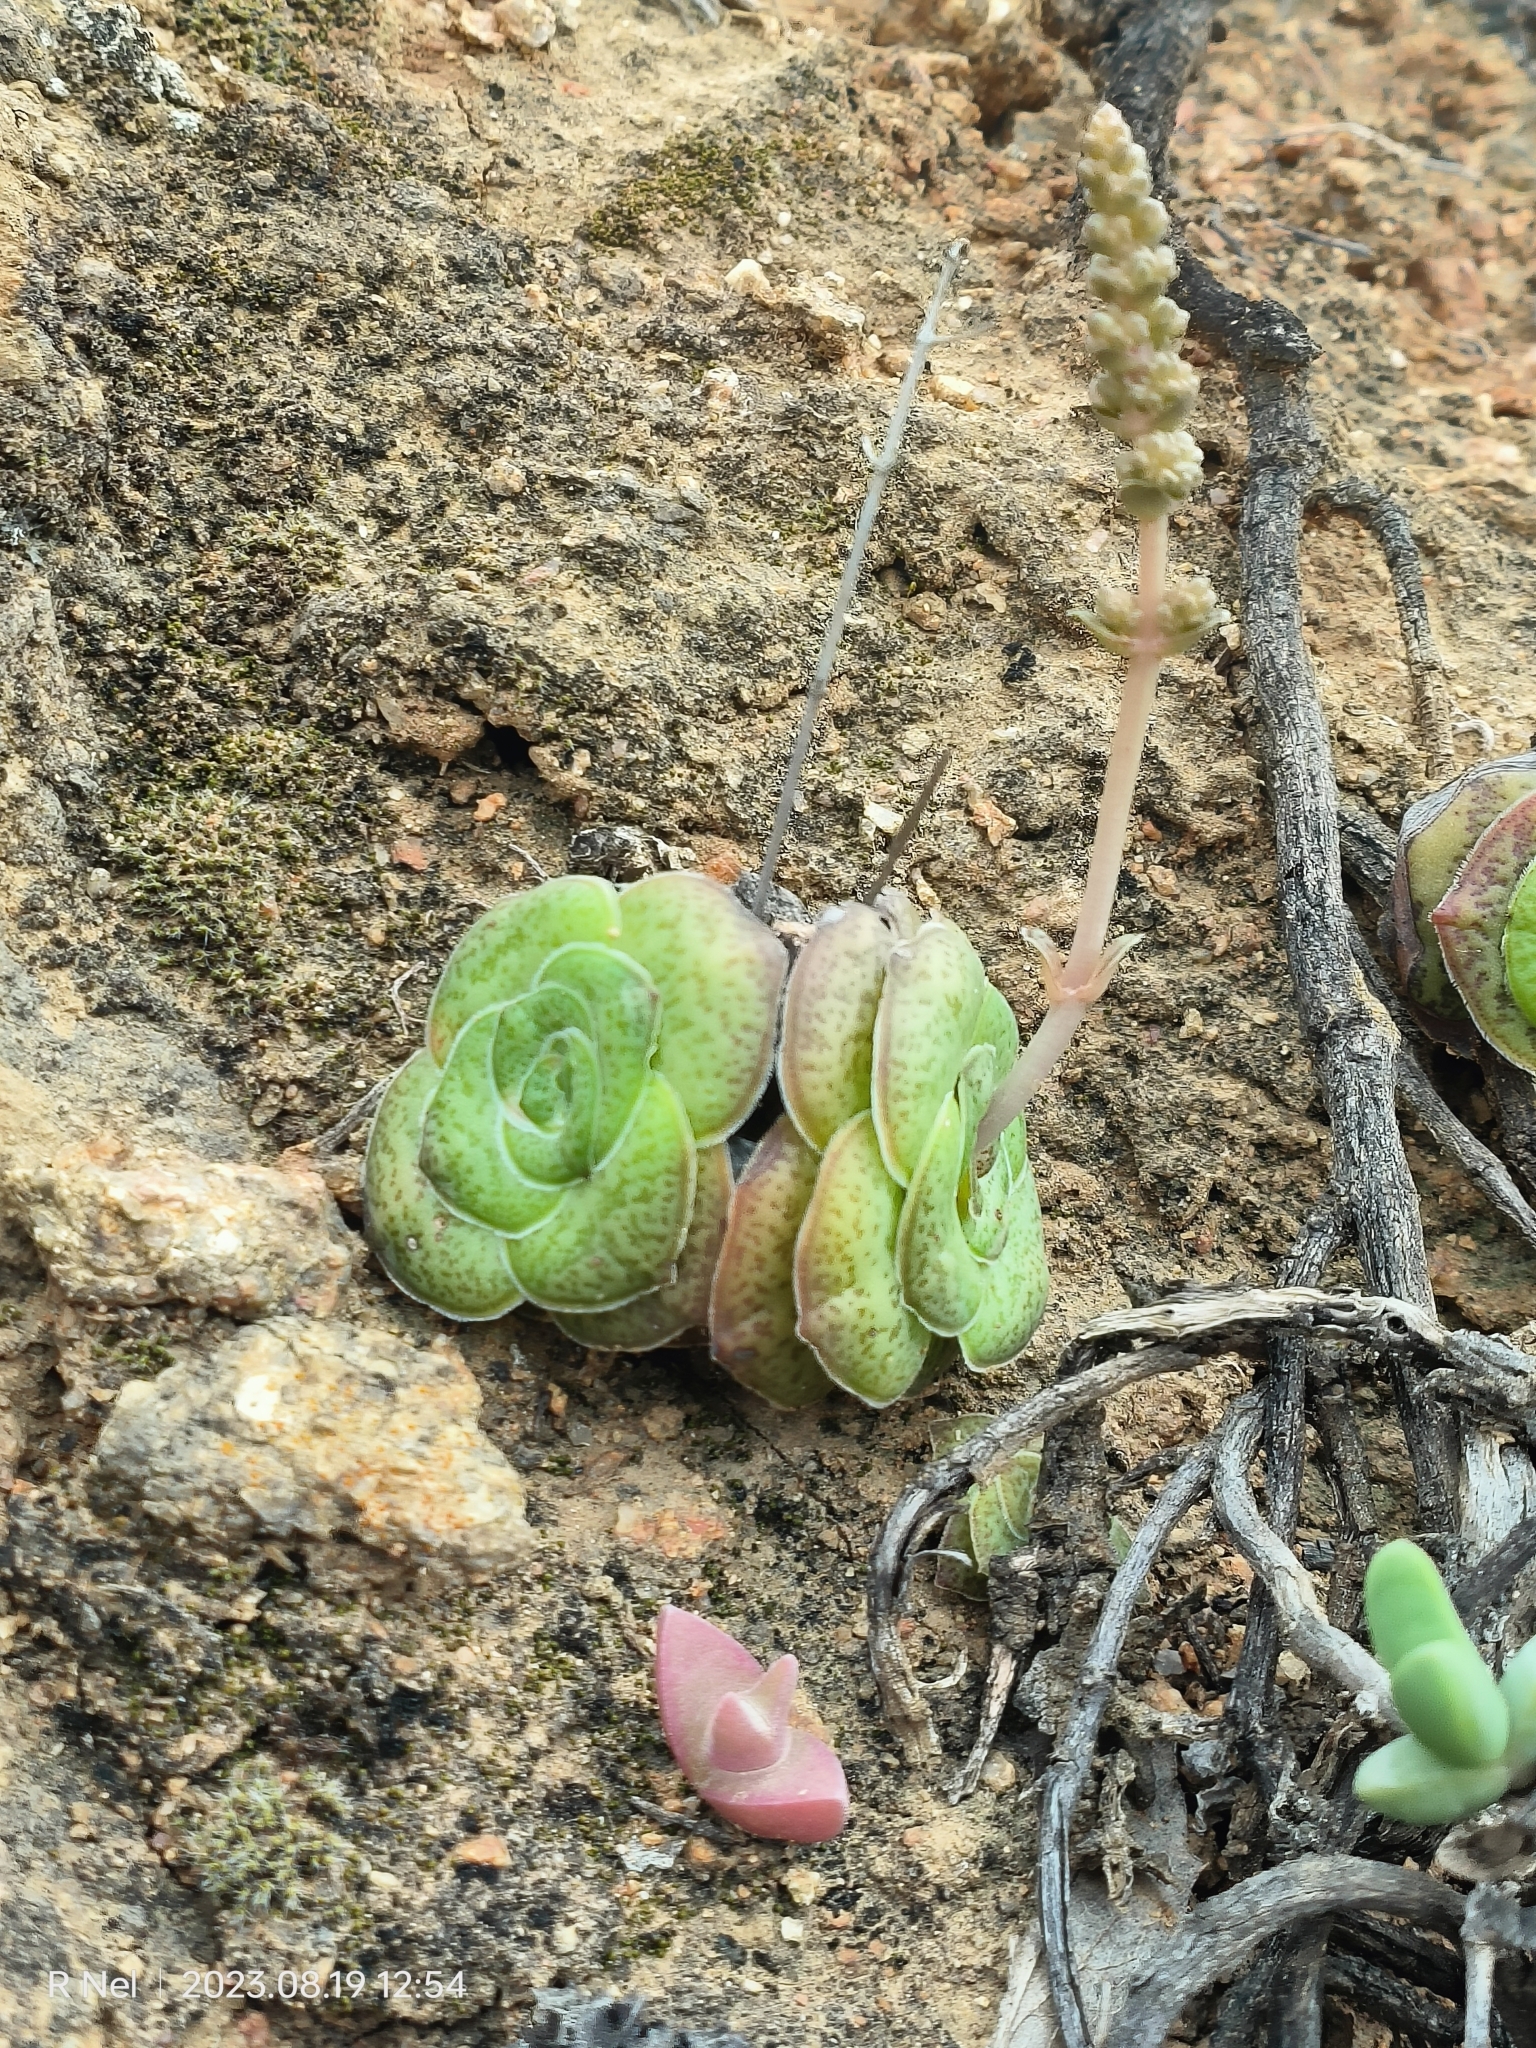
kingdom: Plantae
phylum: Tracheophyta
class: Magnoliopsida
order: Saxifragales
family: Crassulaceae
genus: Crassula
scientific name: Crassula pseudohemisphaerica
